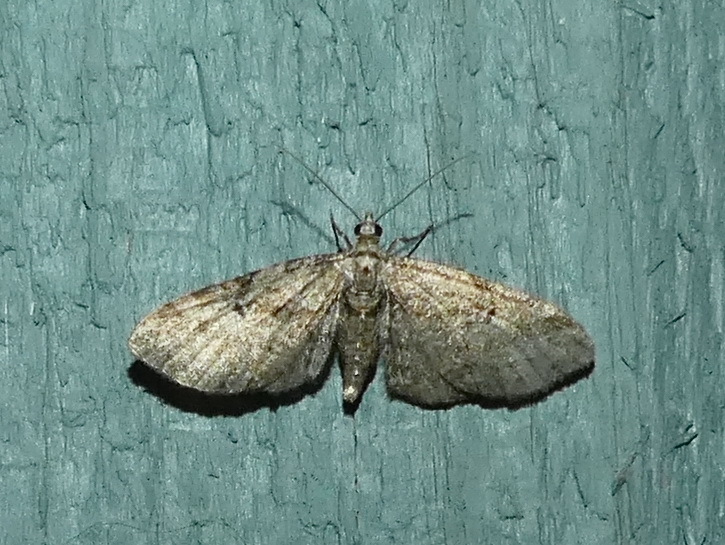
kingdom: Animalia
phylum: Arthropoda
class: Insecta
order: Lepidoptera
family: Geometridae
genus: Eupithecia
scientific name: Eupithecia miserulata
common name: Common eupithecia
